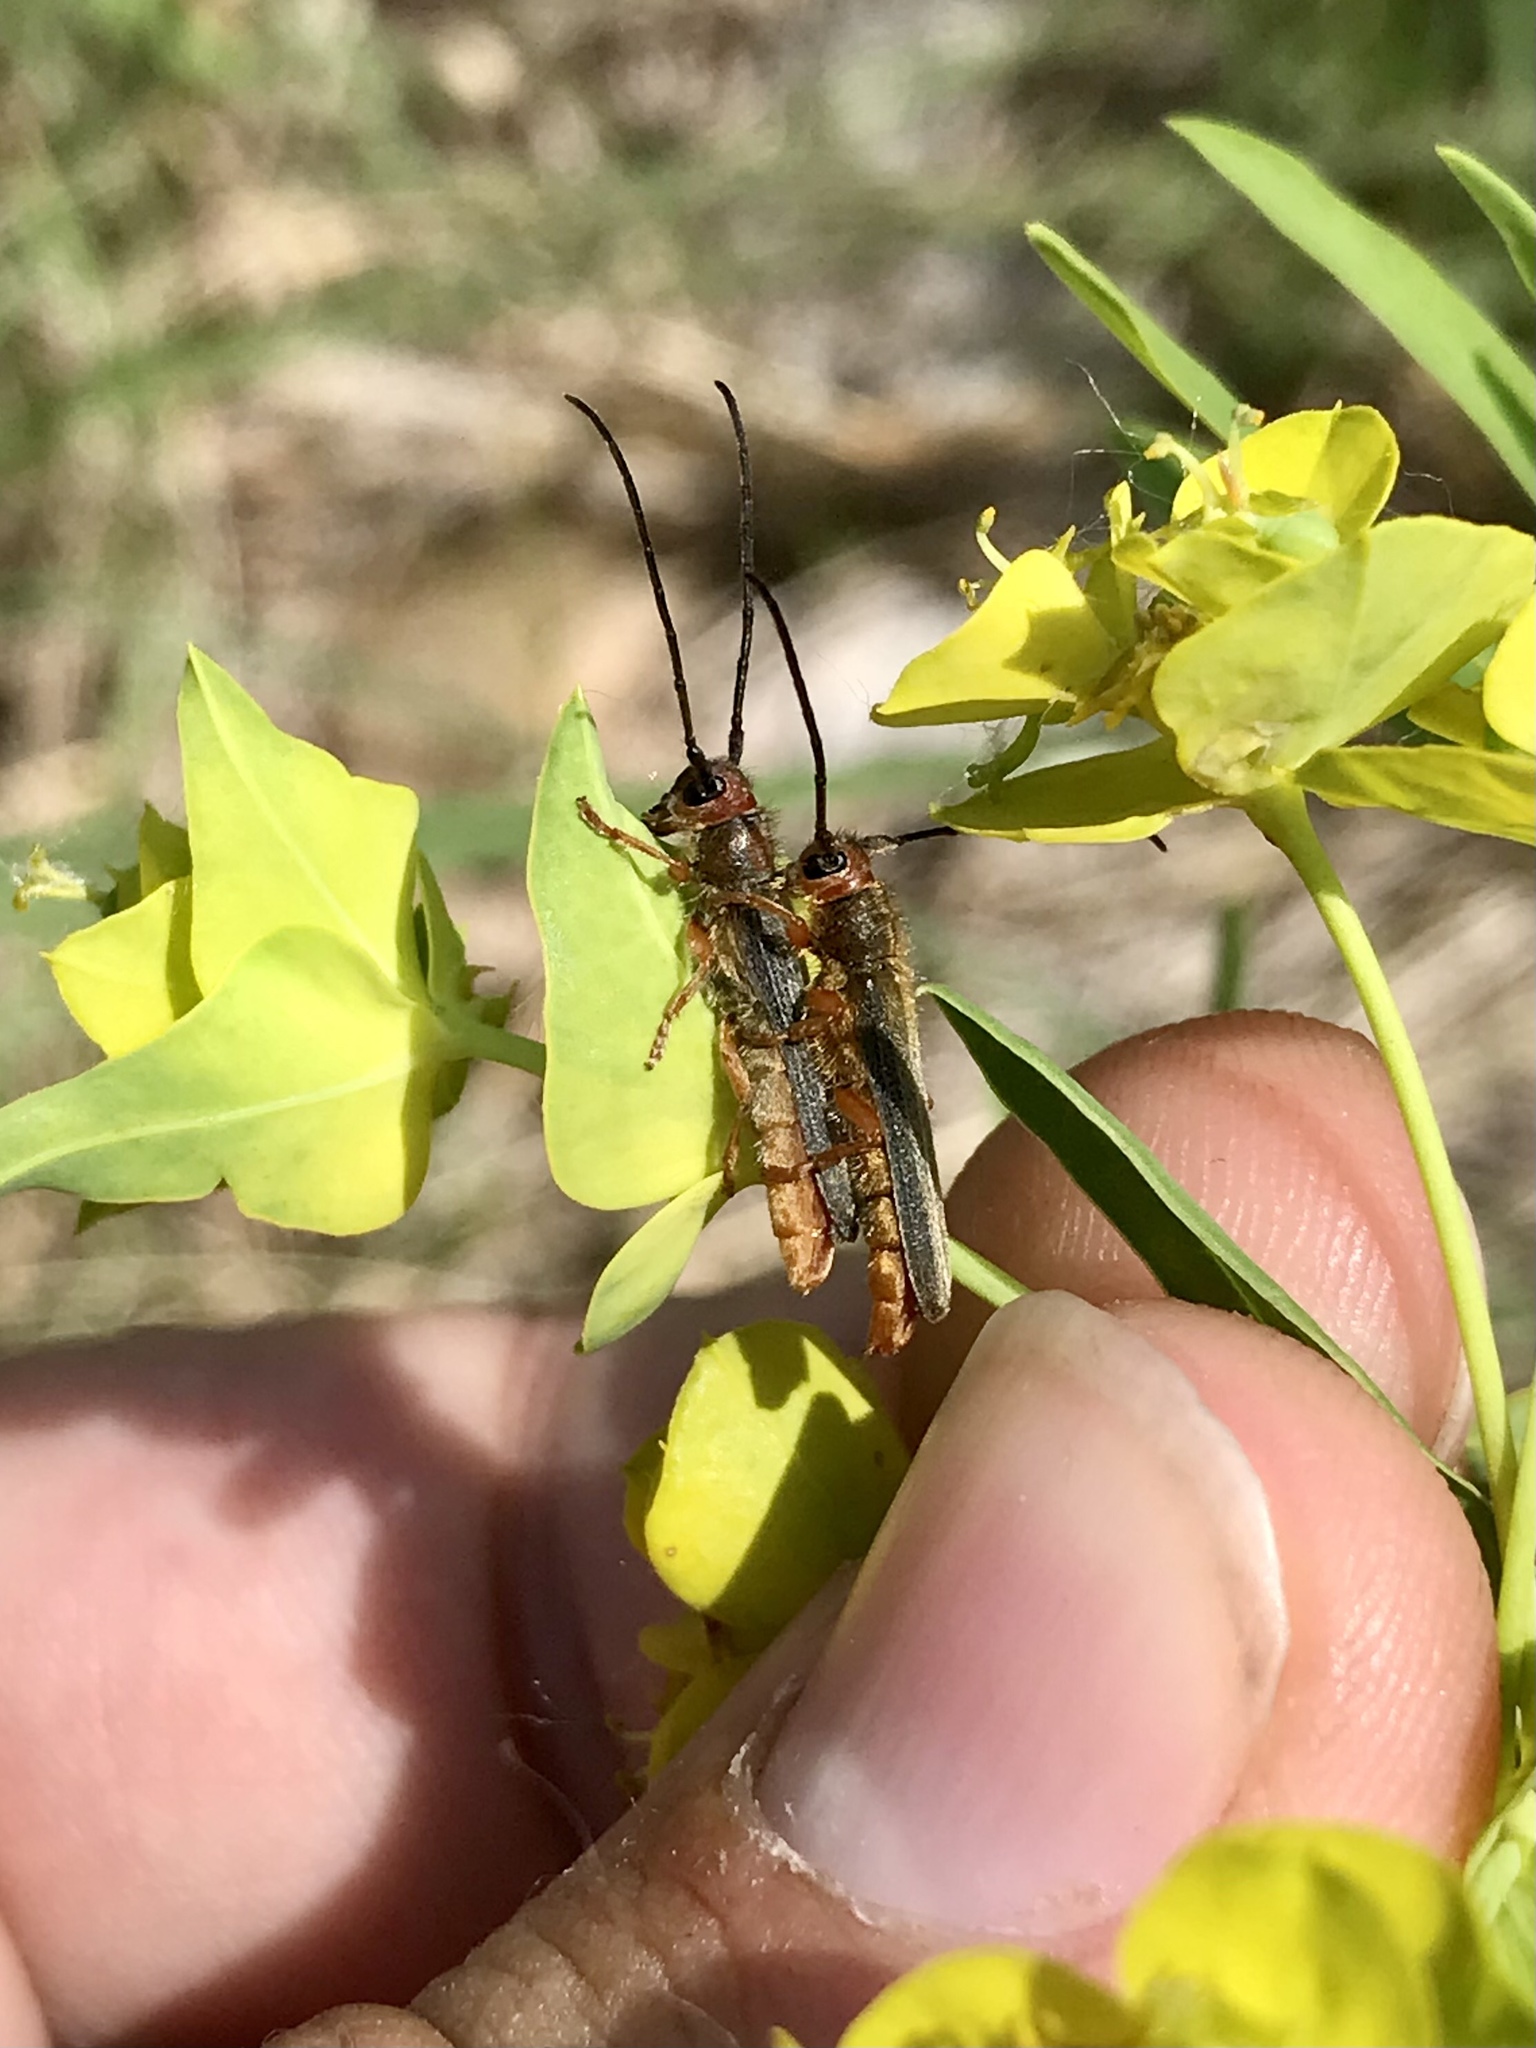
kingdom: Animalia
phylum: Arthropoda
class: Insecta
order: Coleoptera
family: Cerambycidae
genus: Oberea
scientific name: Oberea erythrocephala
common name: Leafy spurge stem boring beetle
